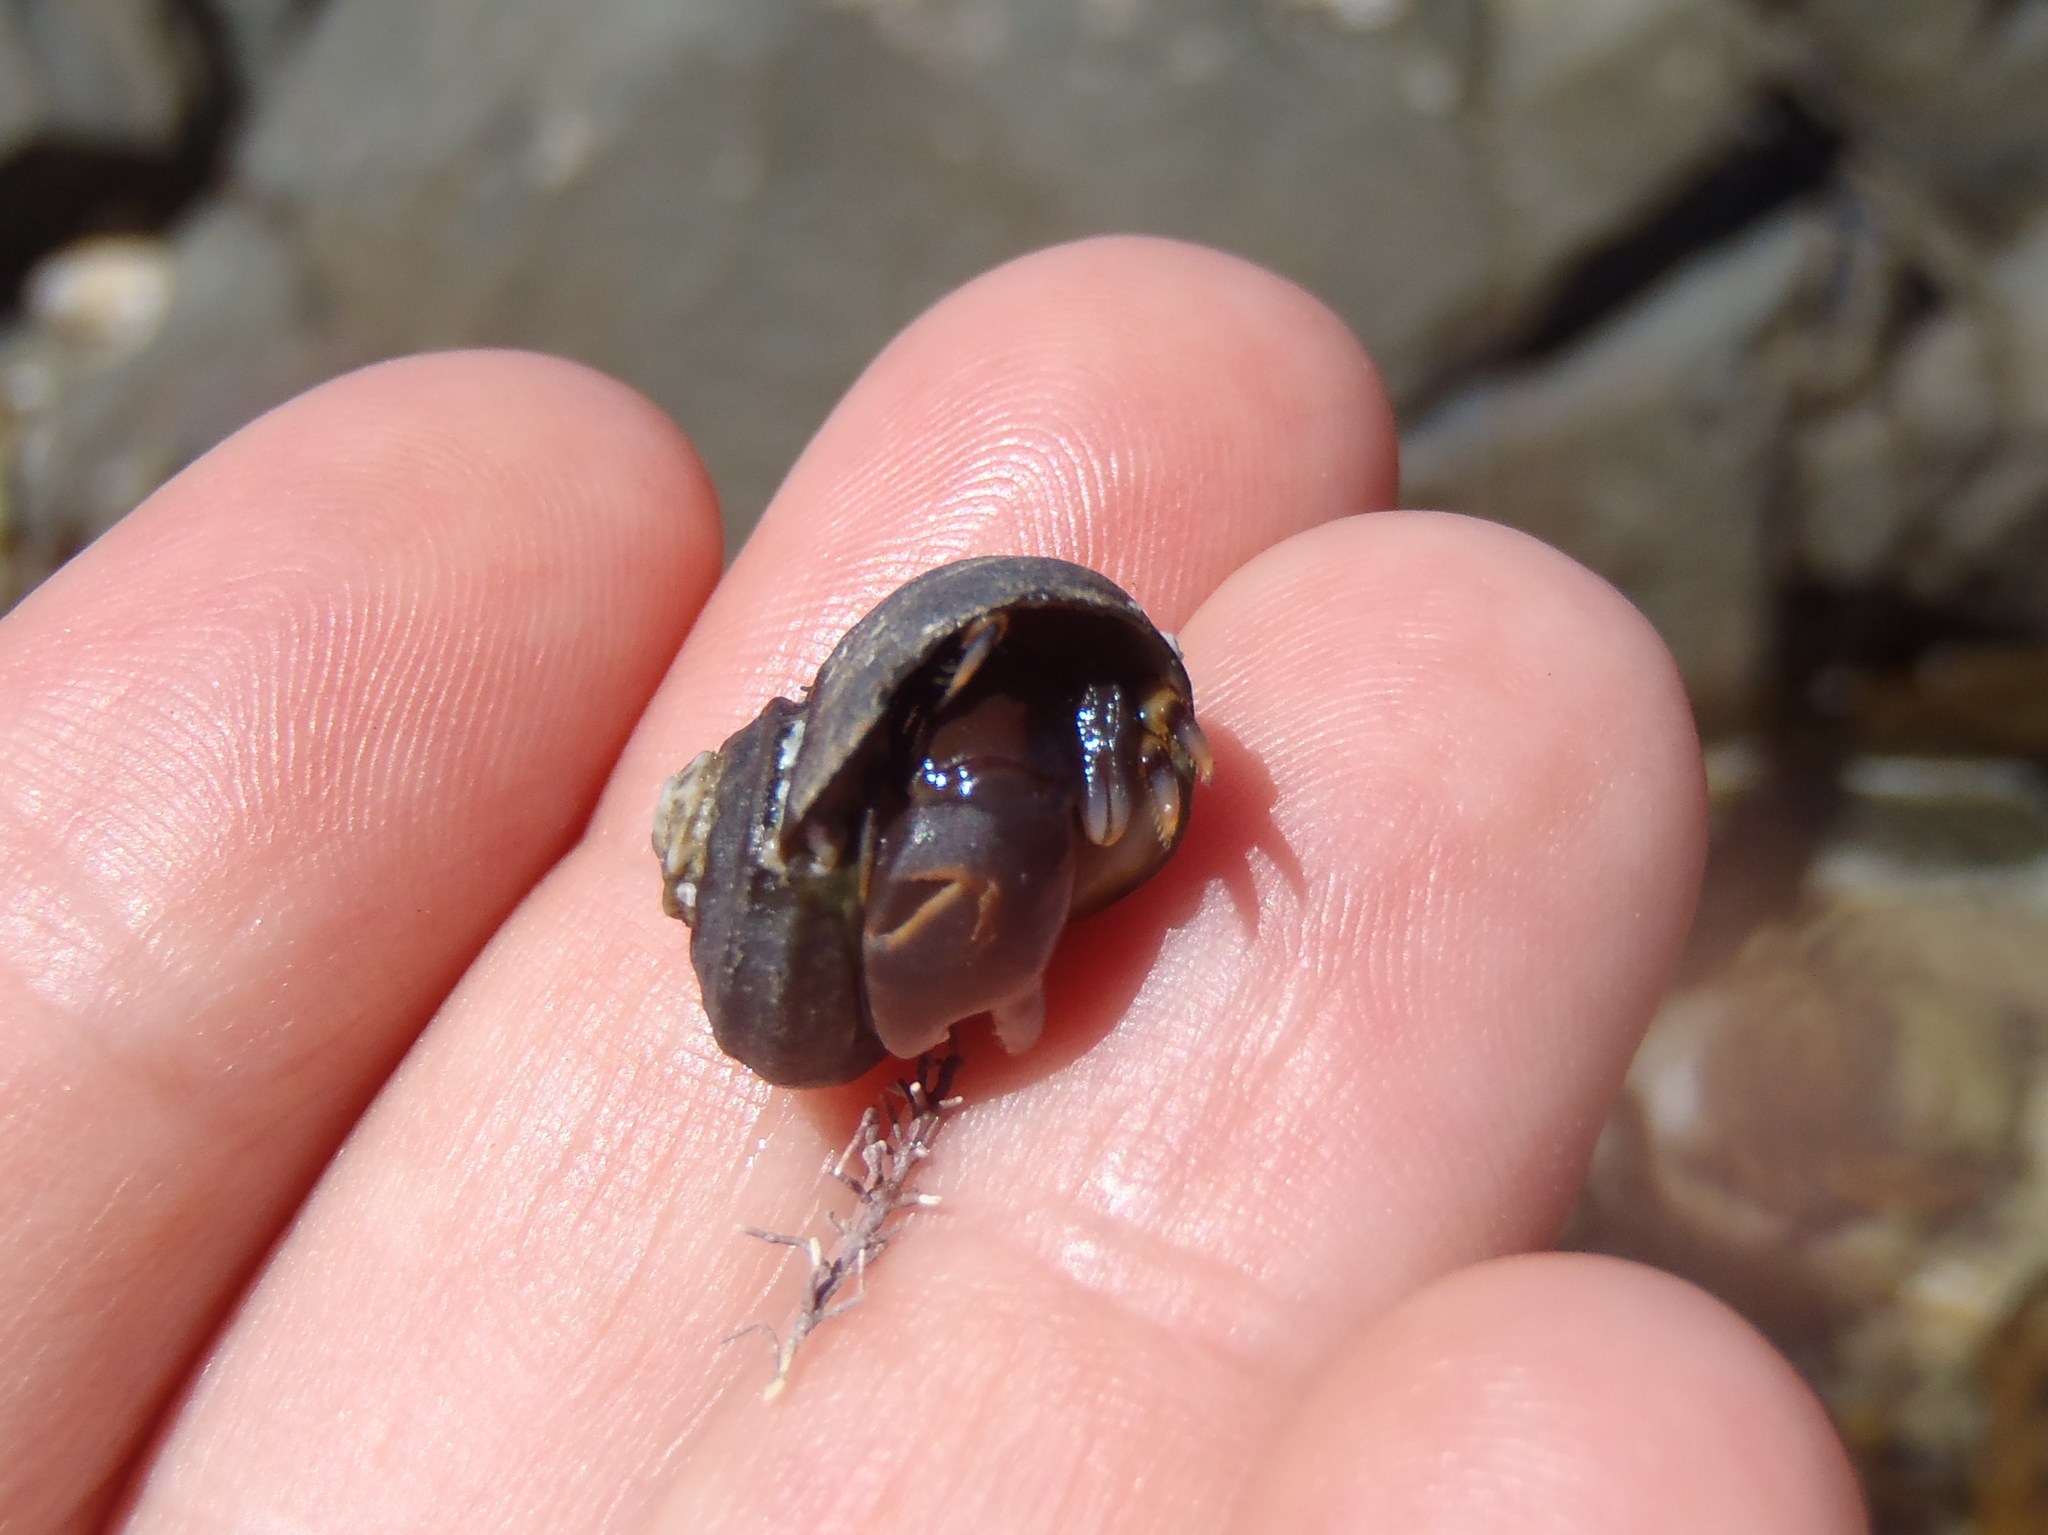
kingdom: Animalia
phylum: Arthropoda
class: Malacostraca
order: Decapoda
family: Paguridae
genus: Pagurixus
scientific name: Pagurixus hectori
